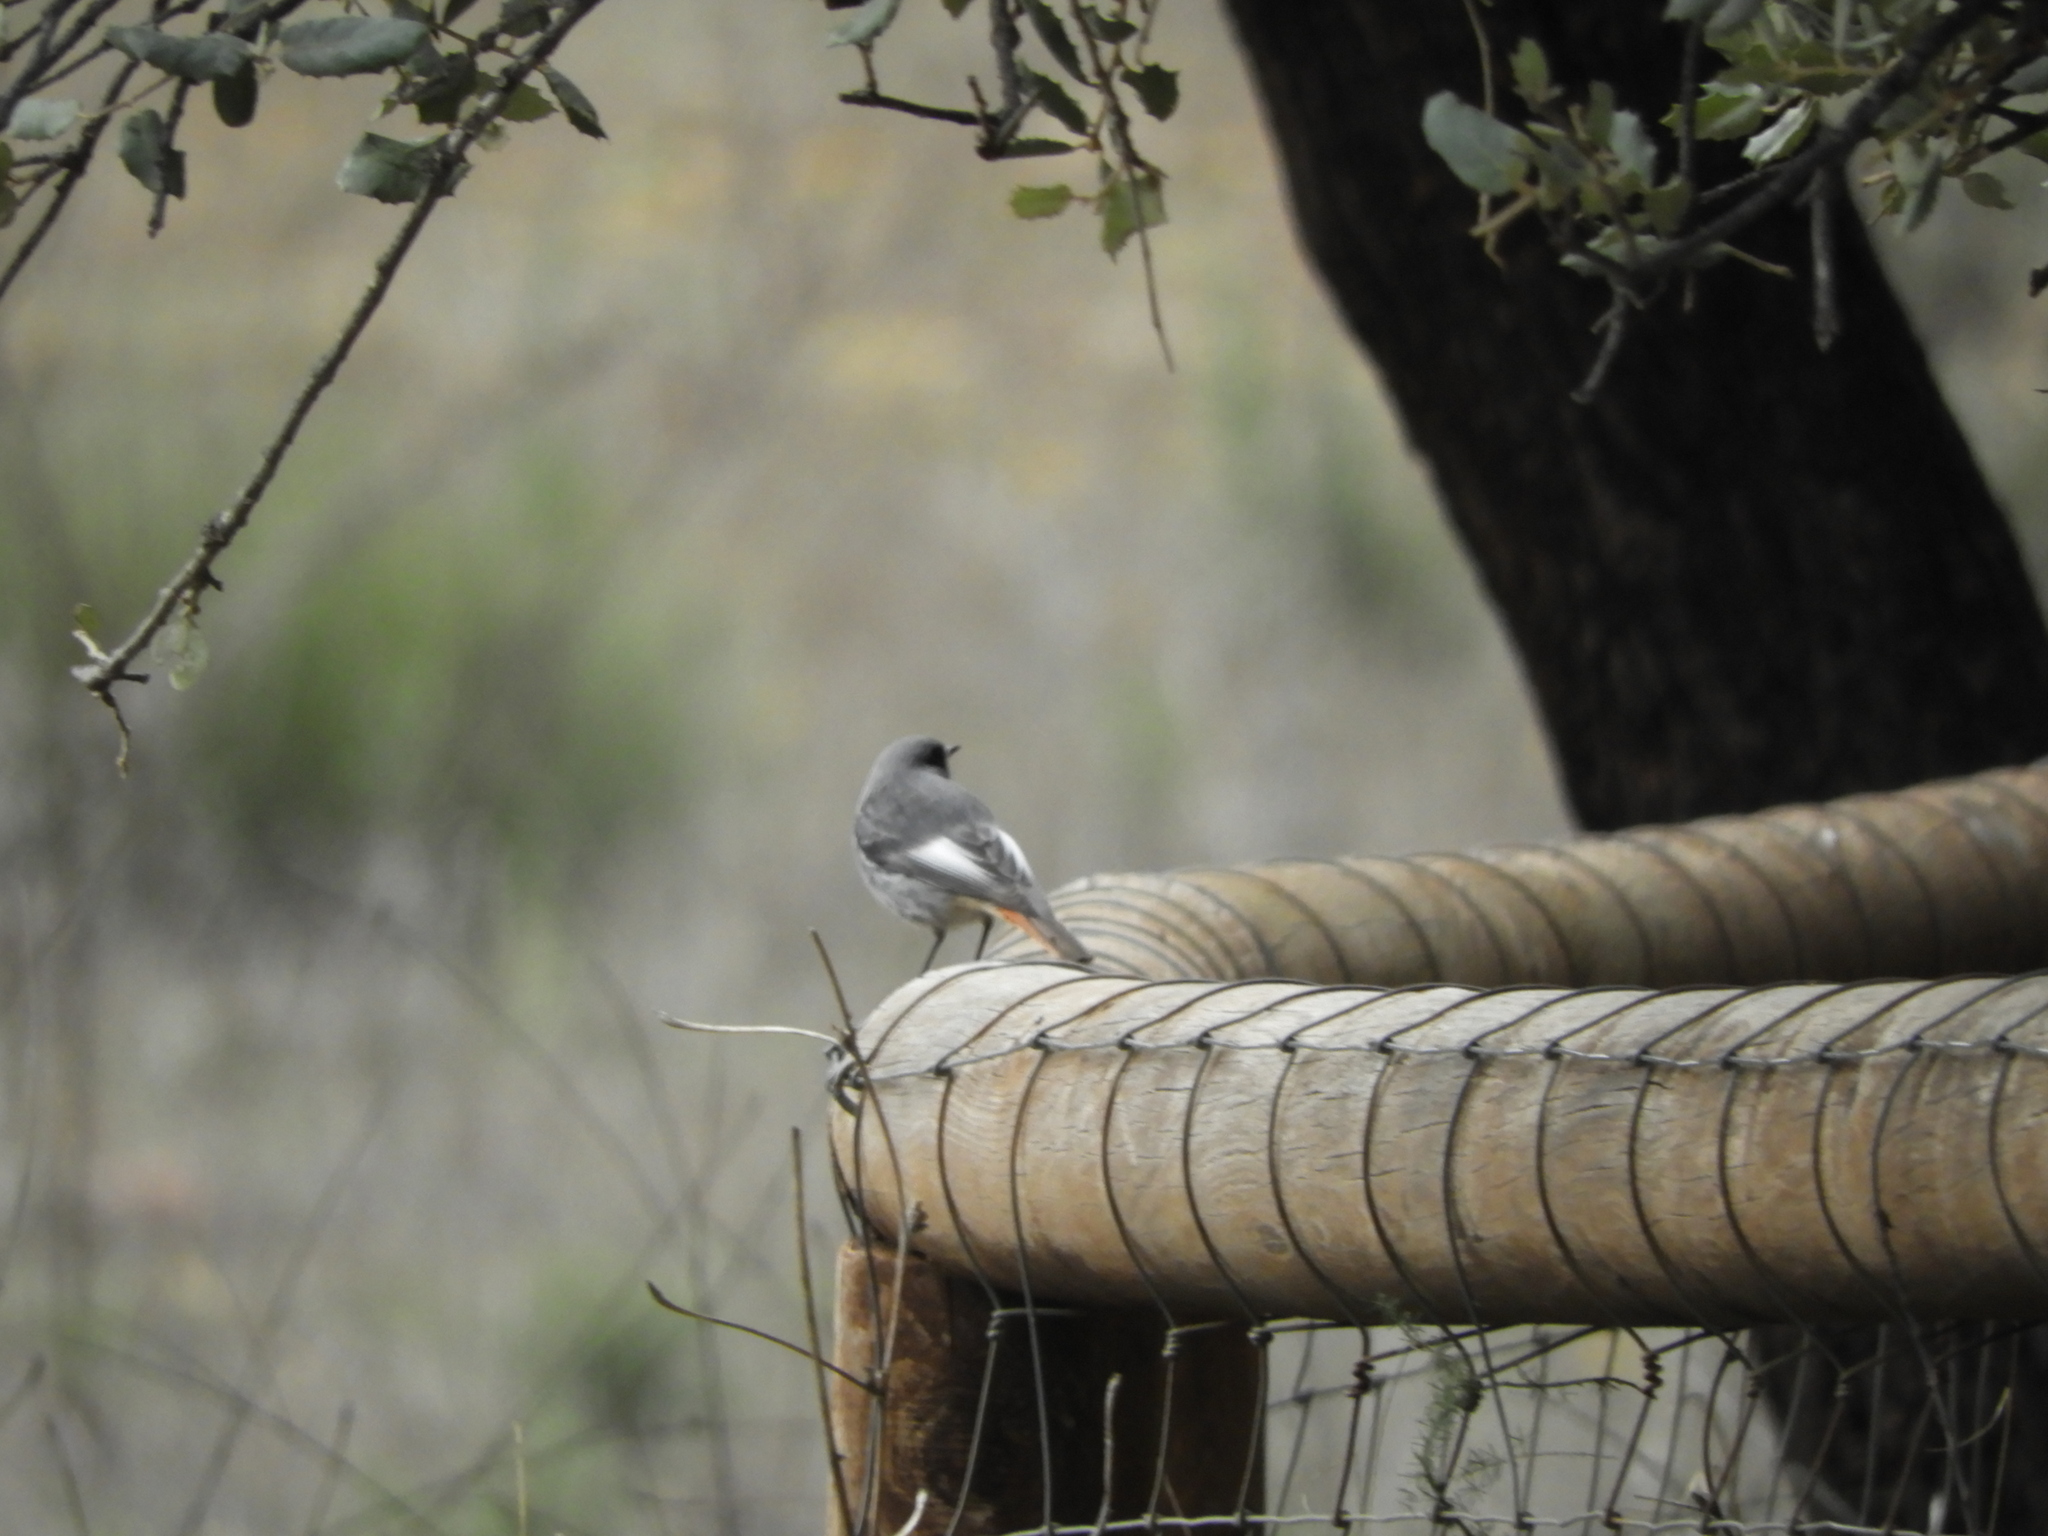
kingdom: Animalia
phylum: Chordata
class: Aves
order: Passeriformes
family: Muscicapidae
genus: Phoenicurus
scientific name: Phoenicurus ochruros
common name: Black redstart
